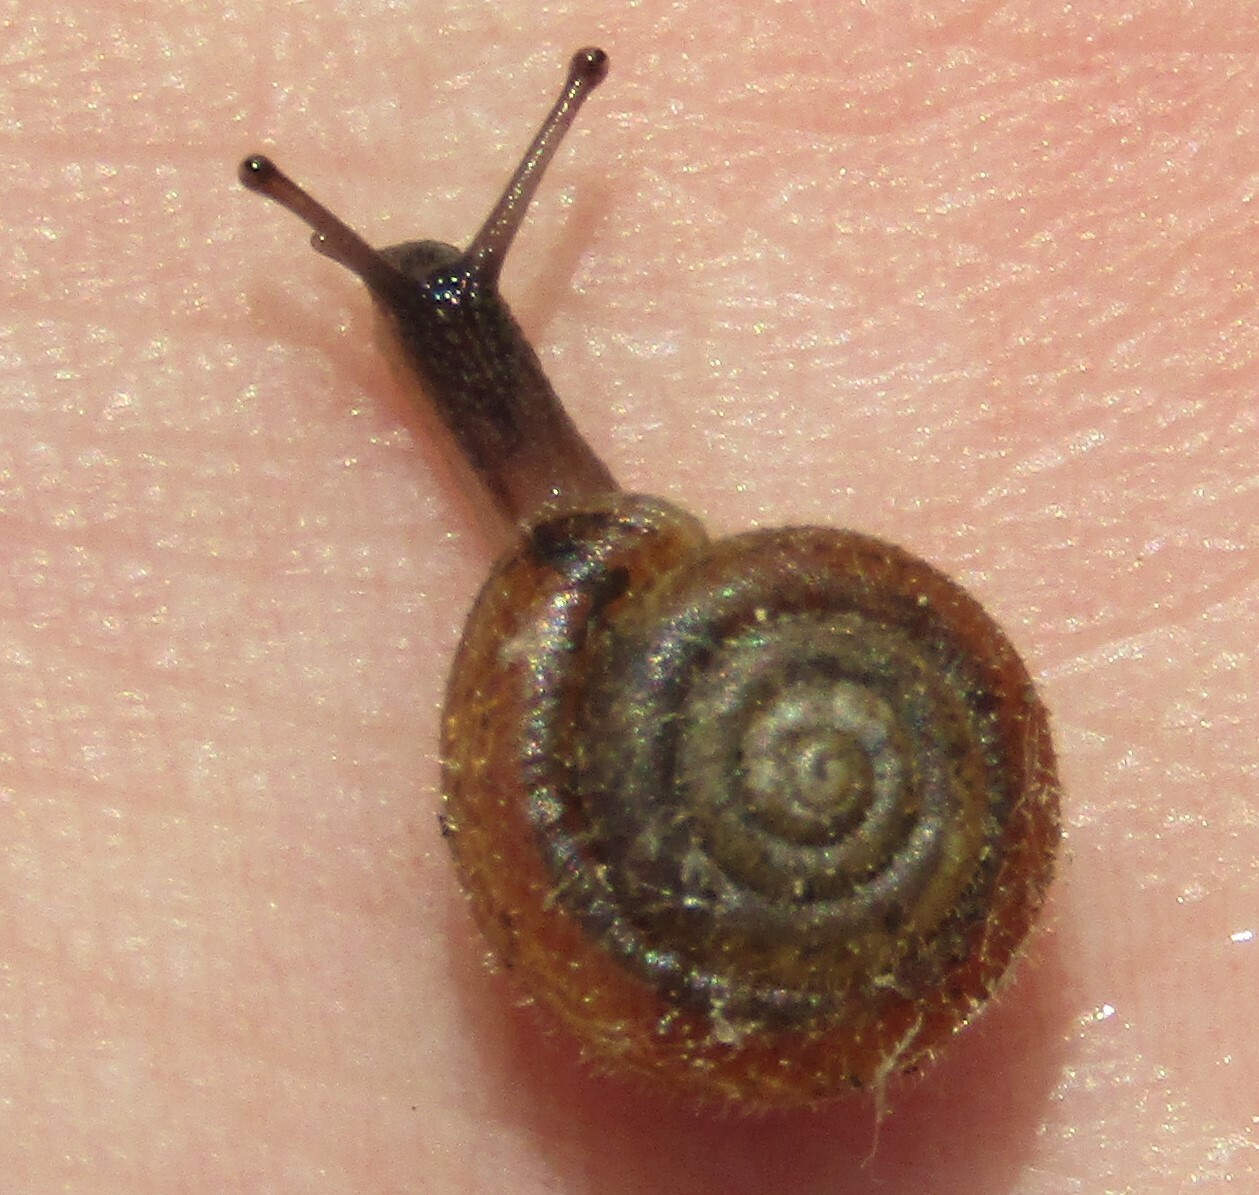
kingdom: Animalia
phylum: Mollusca
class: Gastropoda
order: Stylommatophora
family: Hygromiidae
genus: Trochulus
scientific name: Trochulus hispidus
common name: Hairy snail
